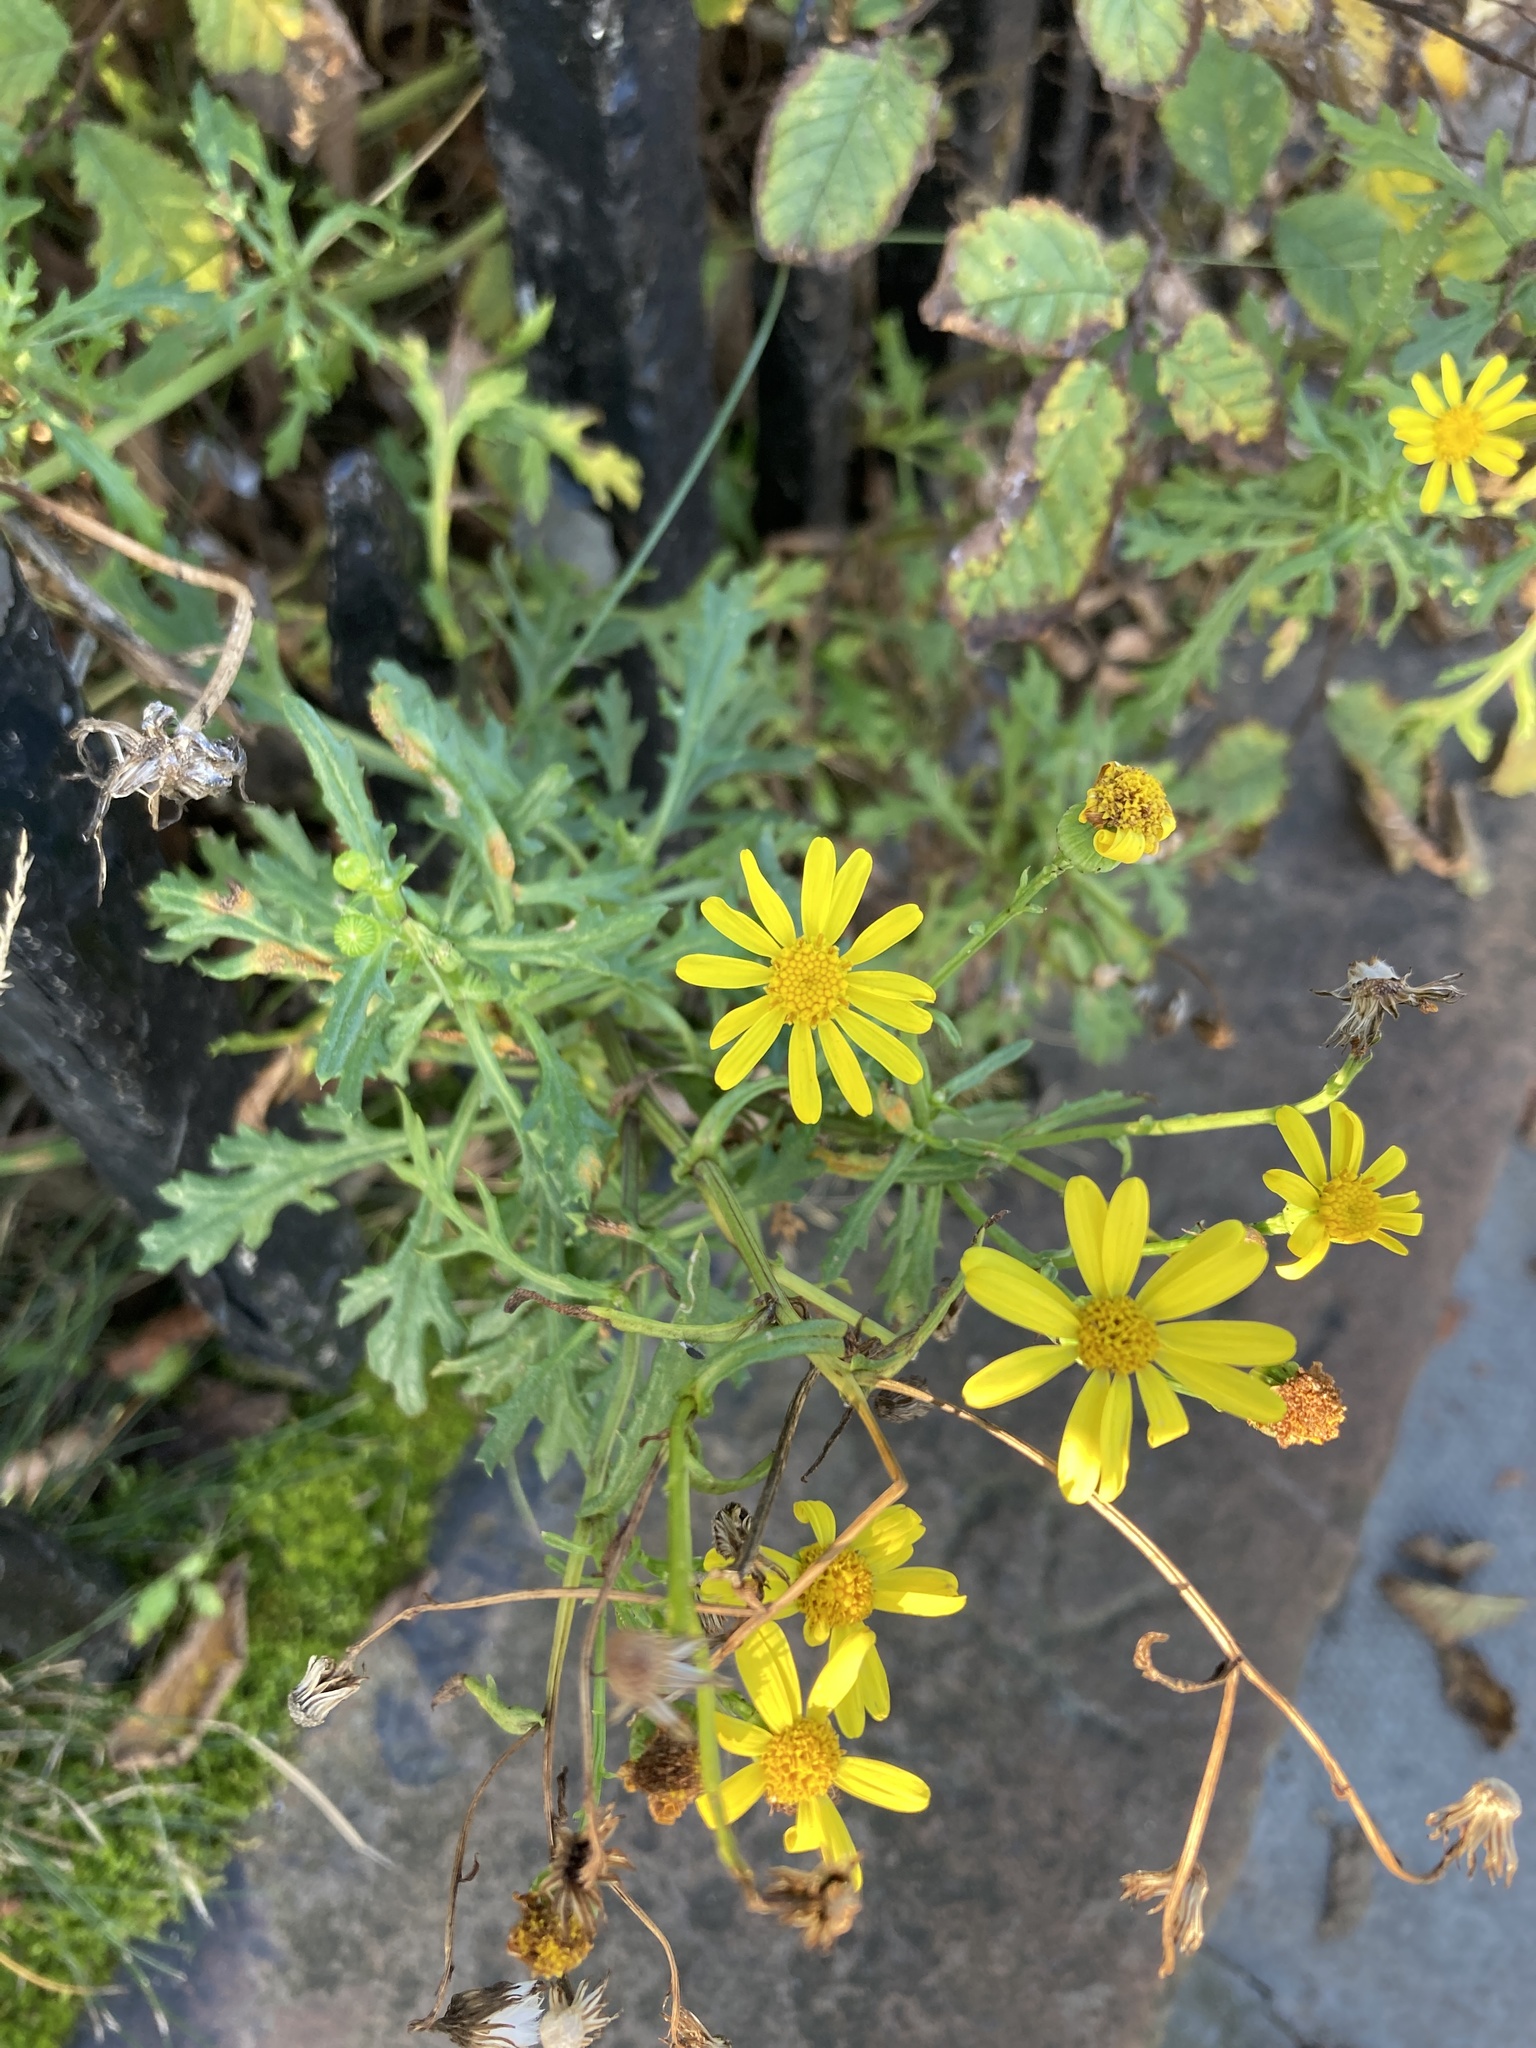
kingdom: Plantae
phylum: Tracheophyta
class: Magnoliopsida
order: Asterales
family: Asteraceae
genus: Senecio
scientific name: Senecio squalidus
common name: Oxford ragwort
